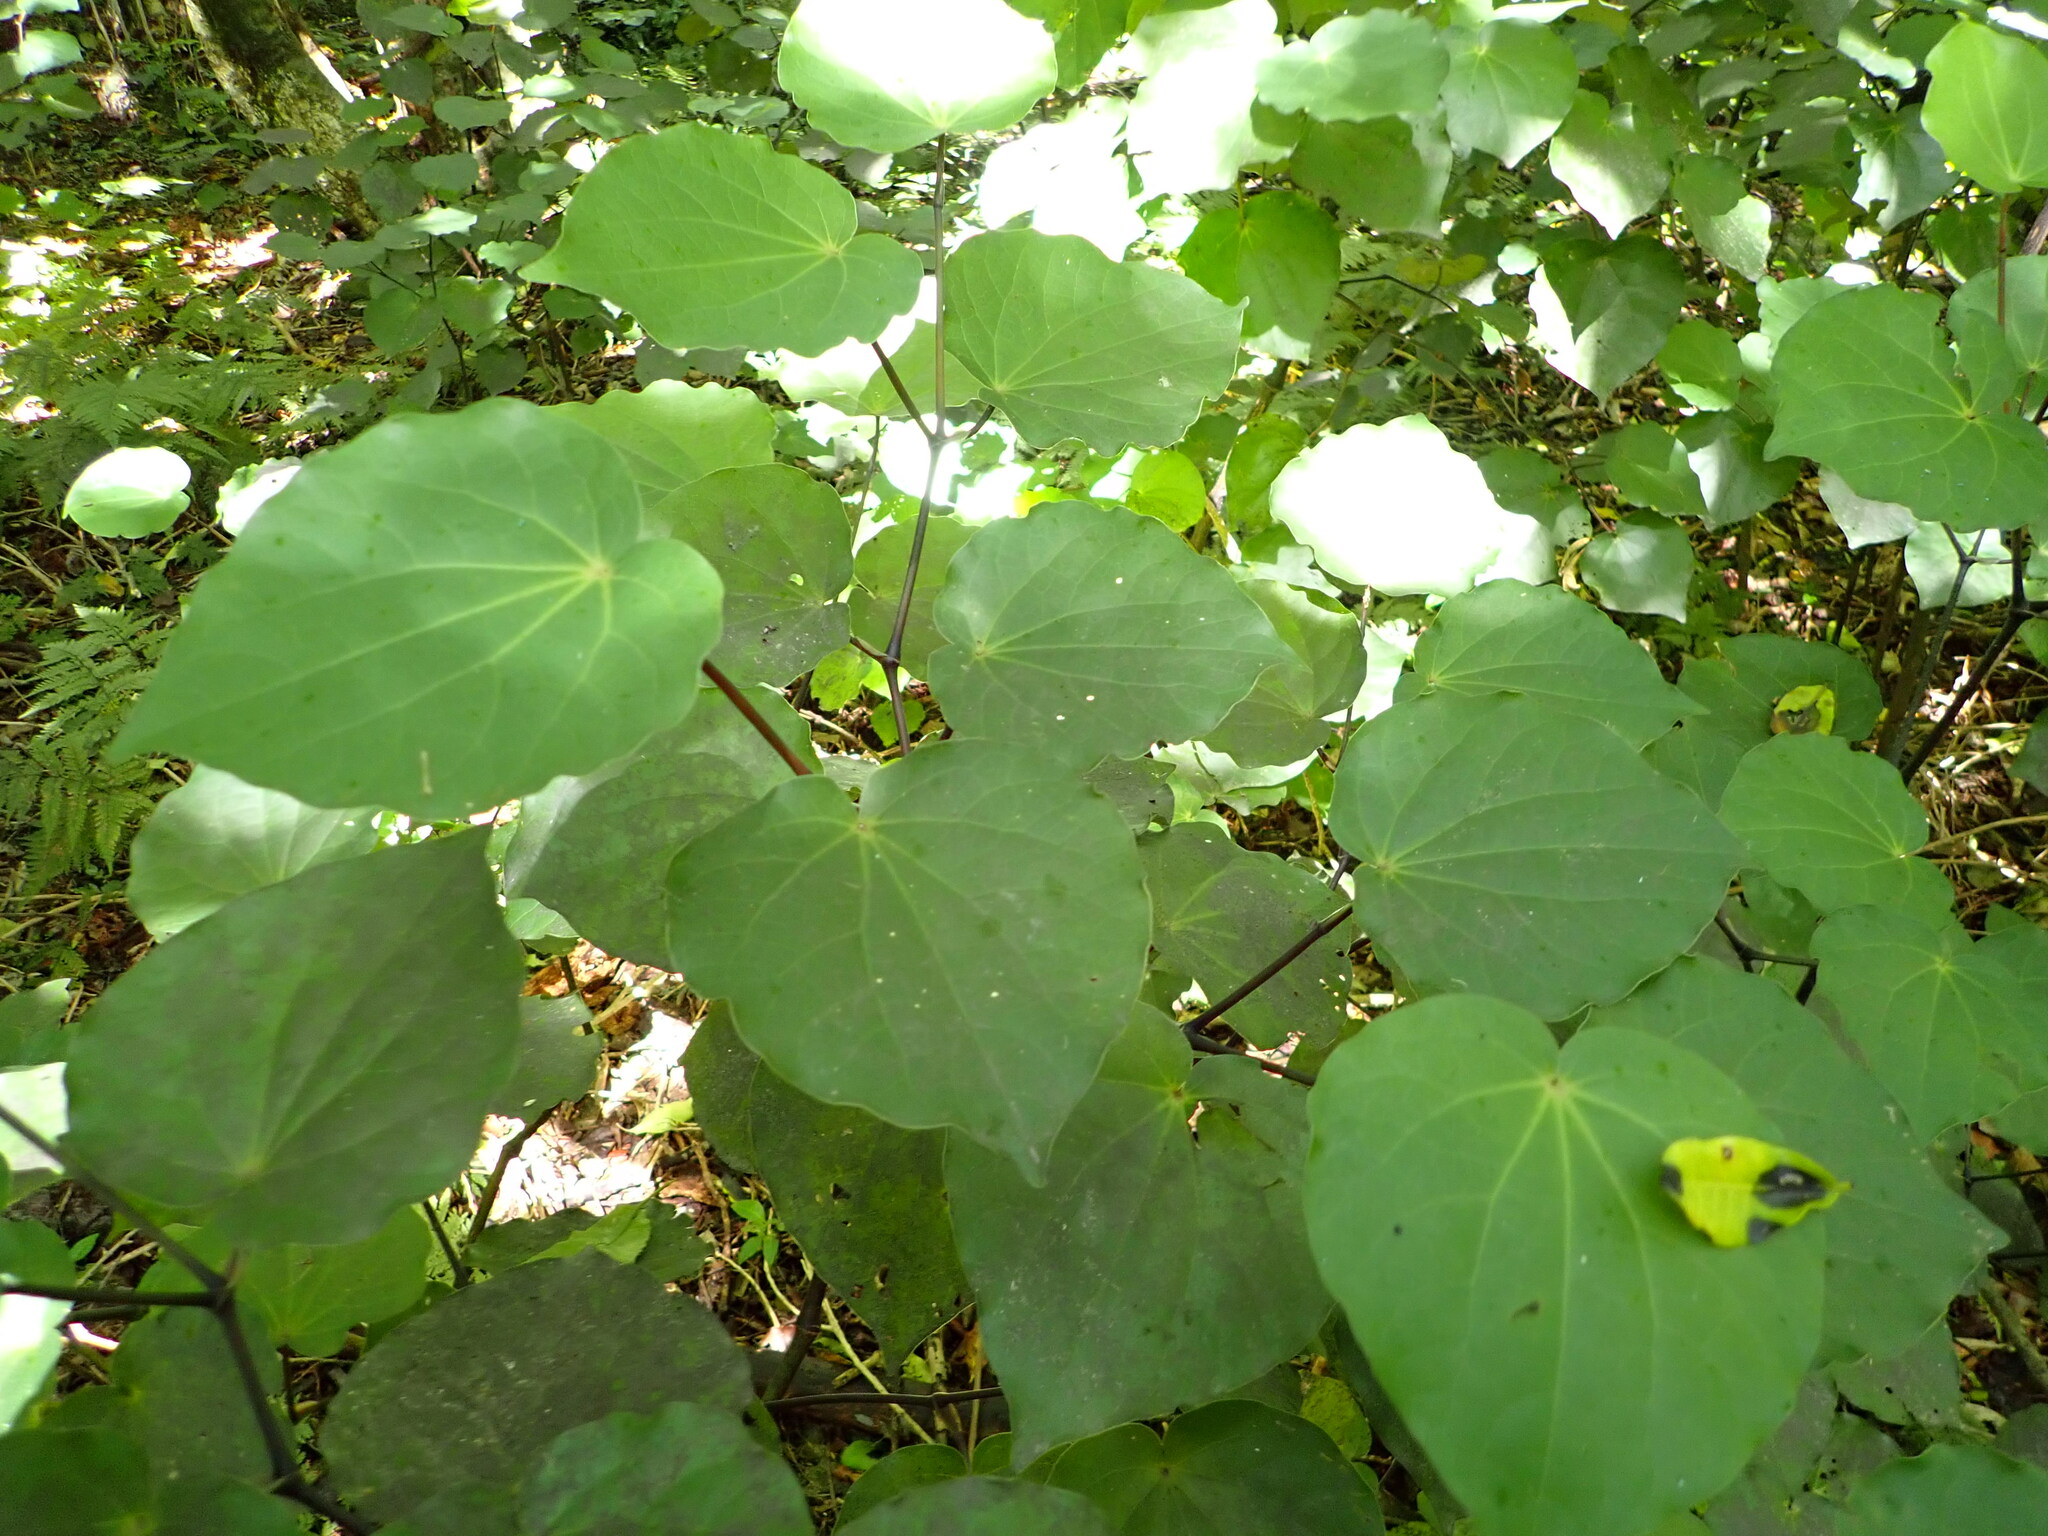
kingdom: Plantae
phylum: Tracheophyta
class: Magnoliopsida
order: Piperales
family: Piperaceae
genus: Macropiper
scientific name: Macropiper excelsum
